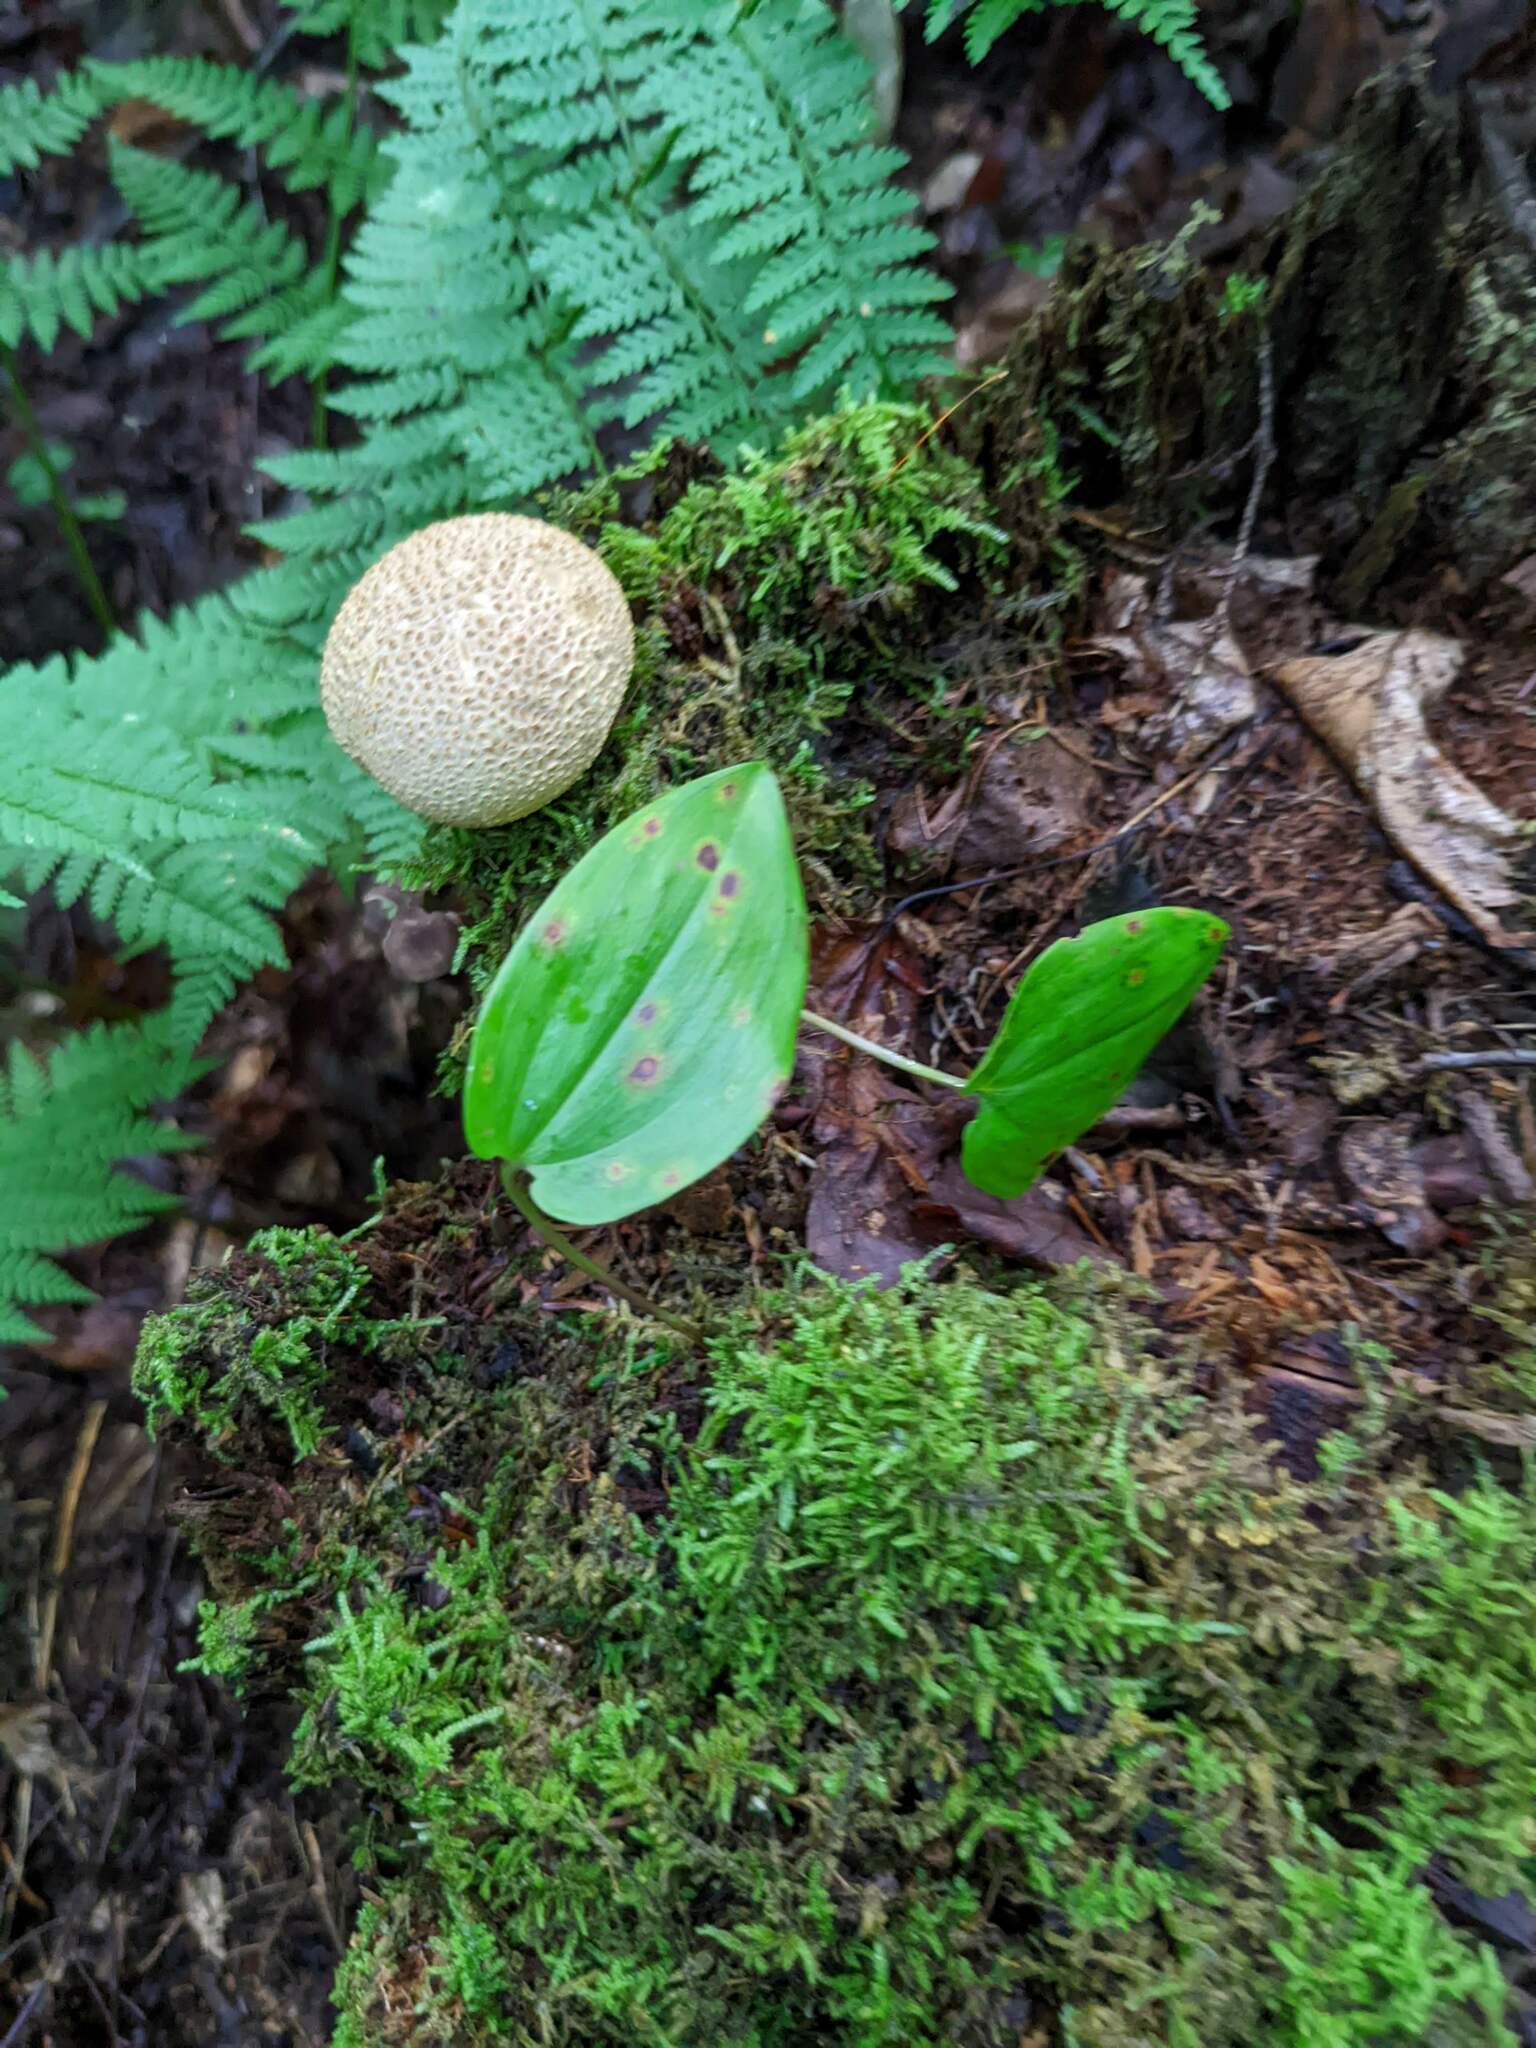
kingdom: Plantae
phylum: Tracheophyta
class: Liliopsida
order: Asparagales
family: Asparagaceae
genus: Maianthemum
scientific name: Maianthemum canadense
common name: False lily-of-the-valley
